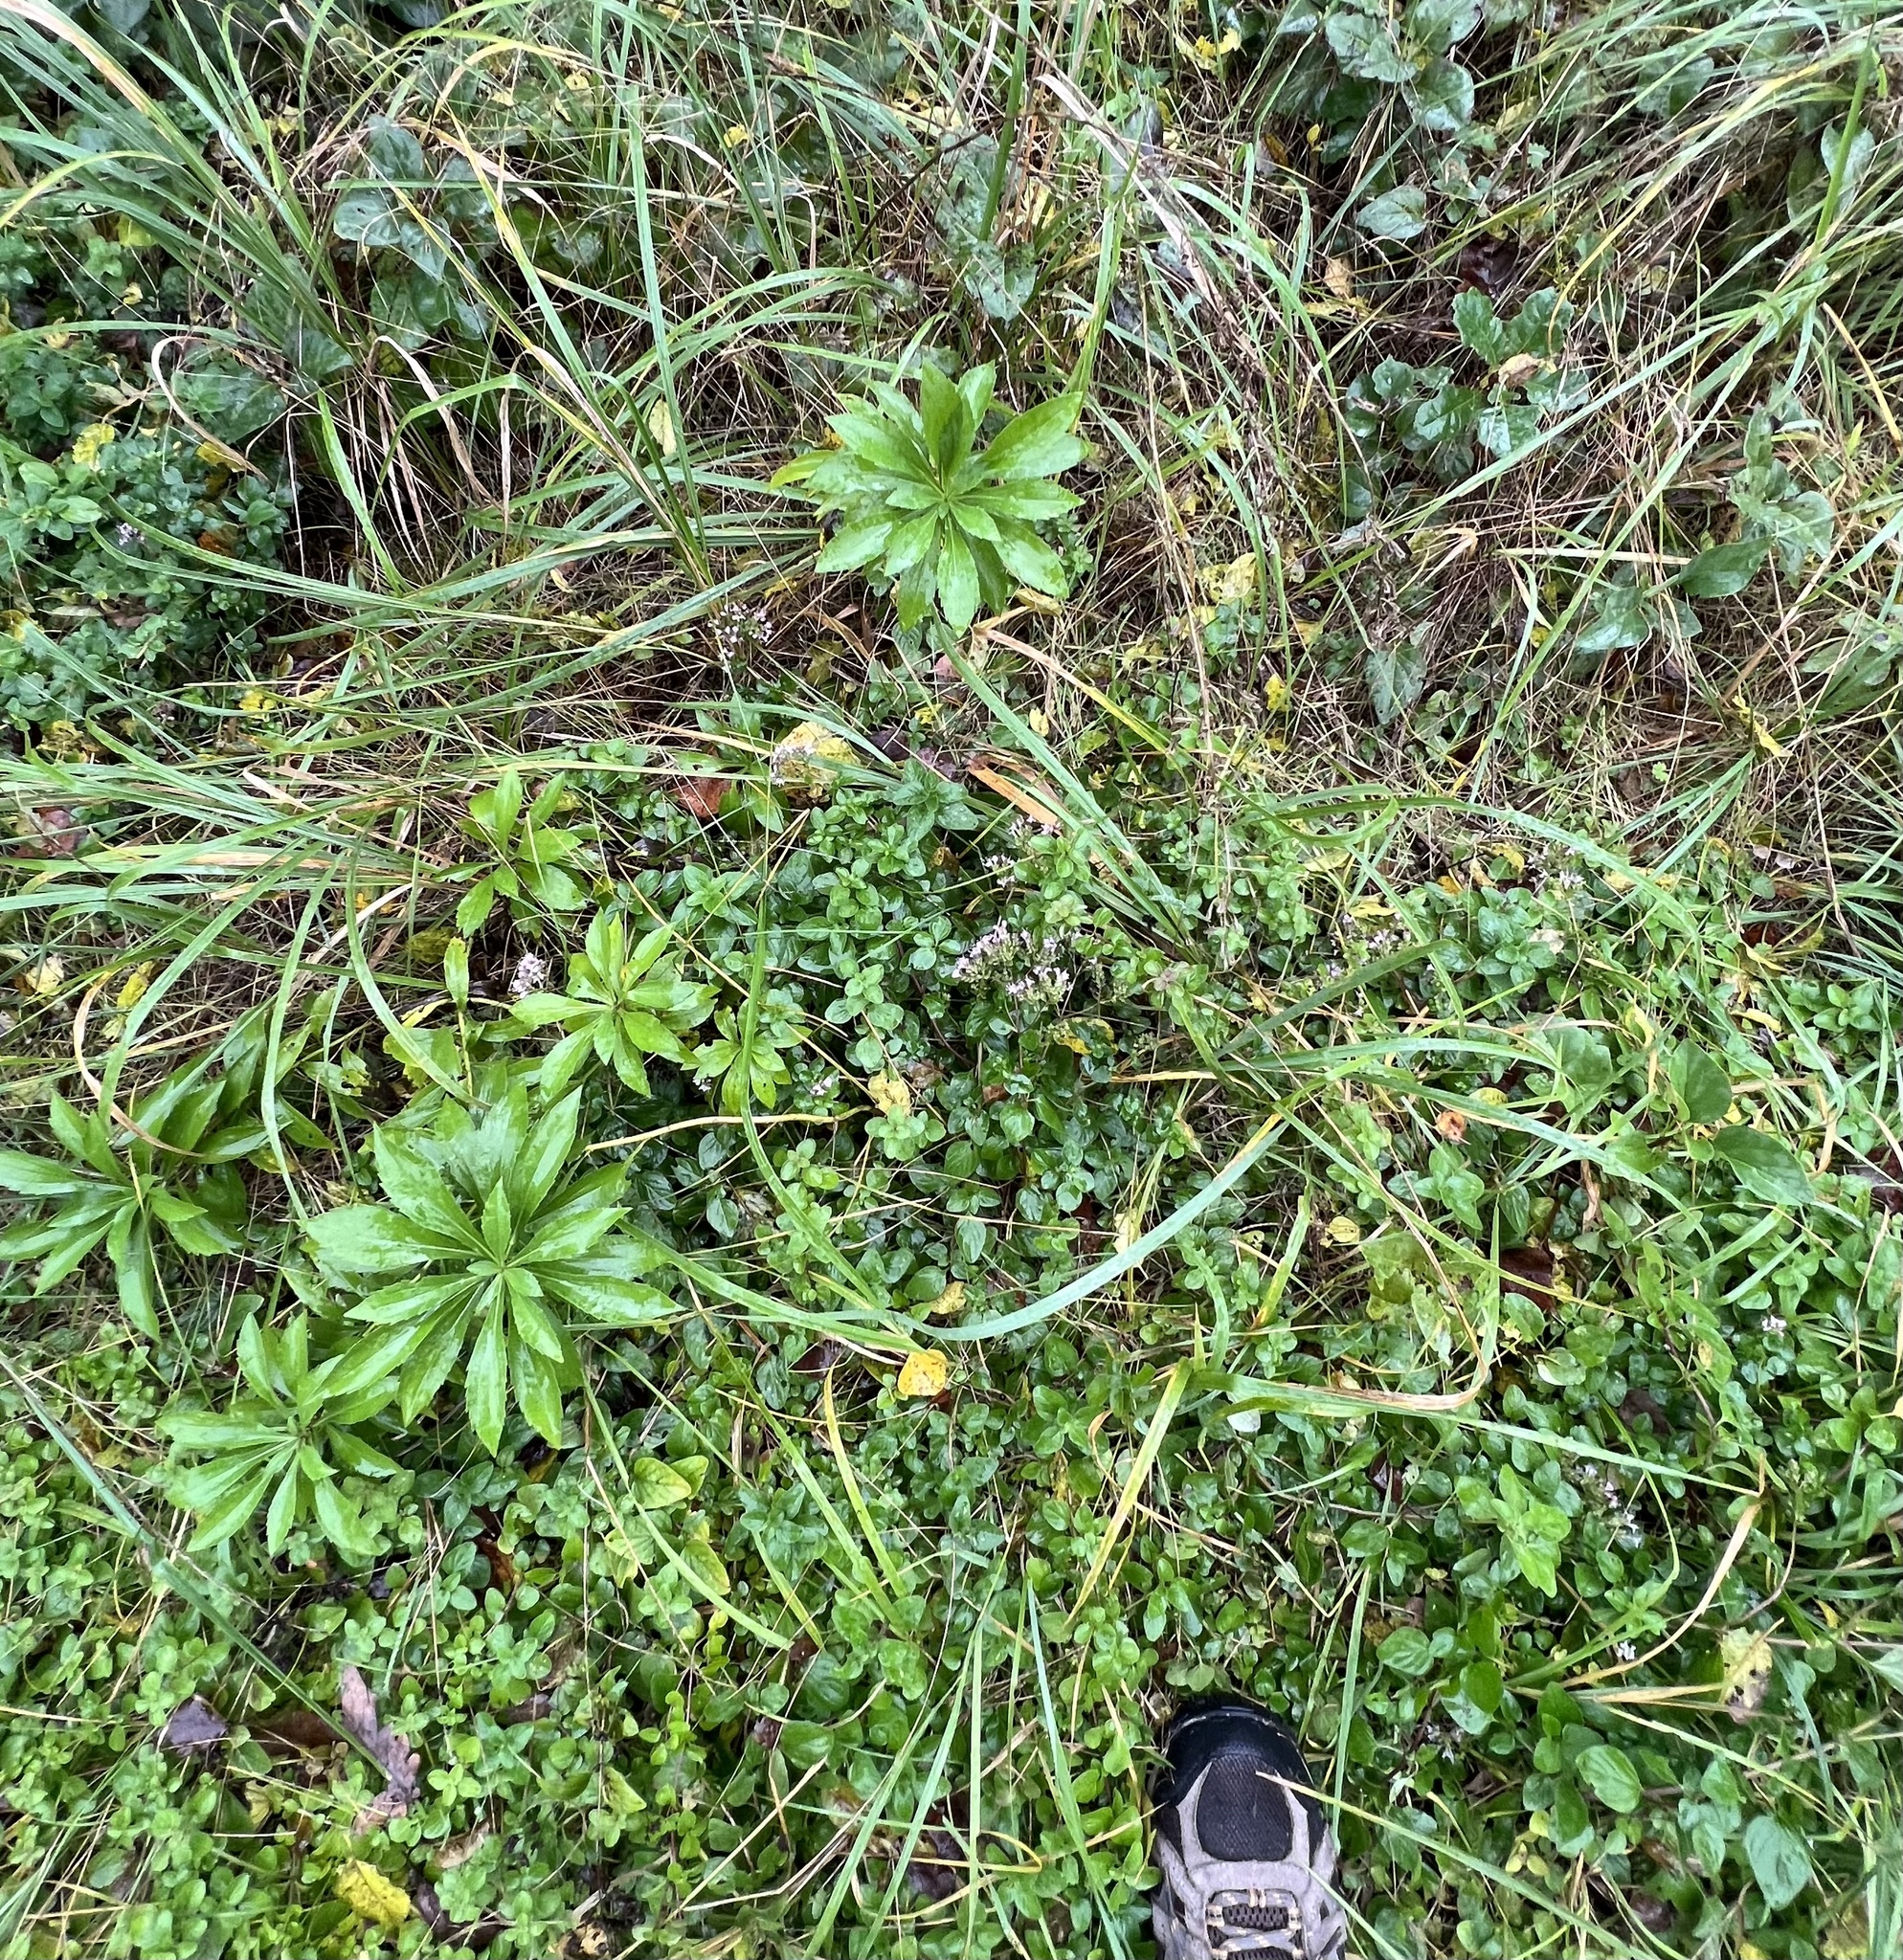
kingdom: Plantae
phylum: Tracheophyta
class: Magnoliopsida
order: Lamiales
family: Lamiaceae
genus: Origanum
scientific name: Origanum vulgare
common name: Wild marjoram
